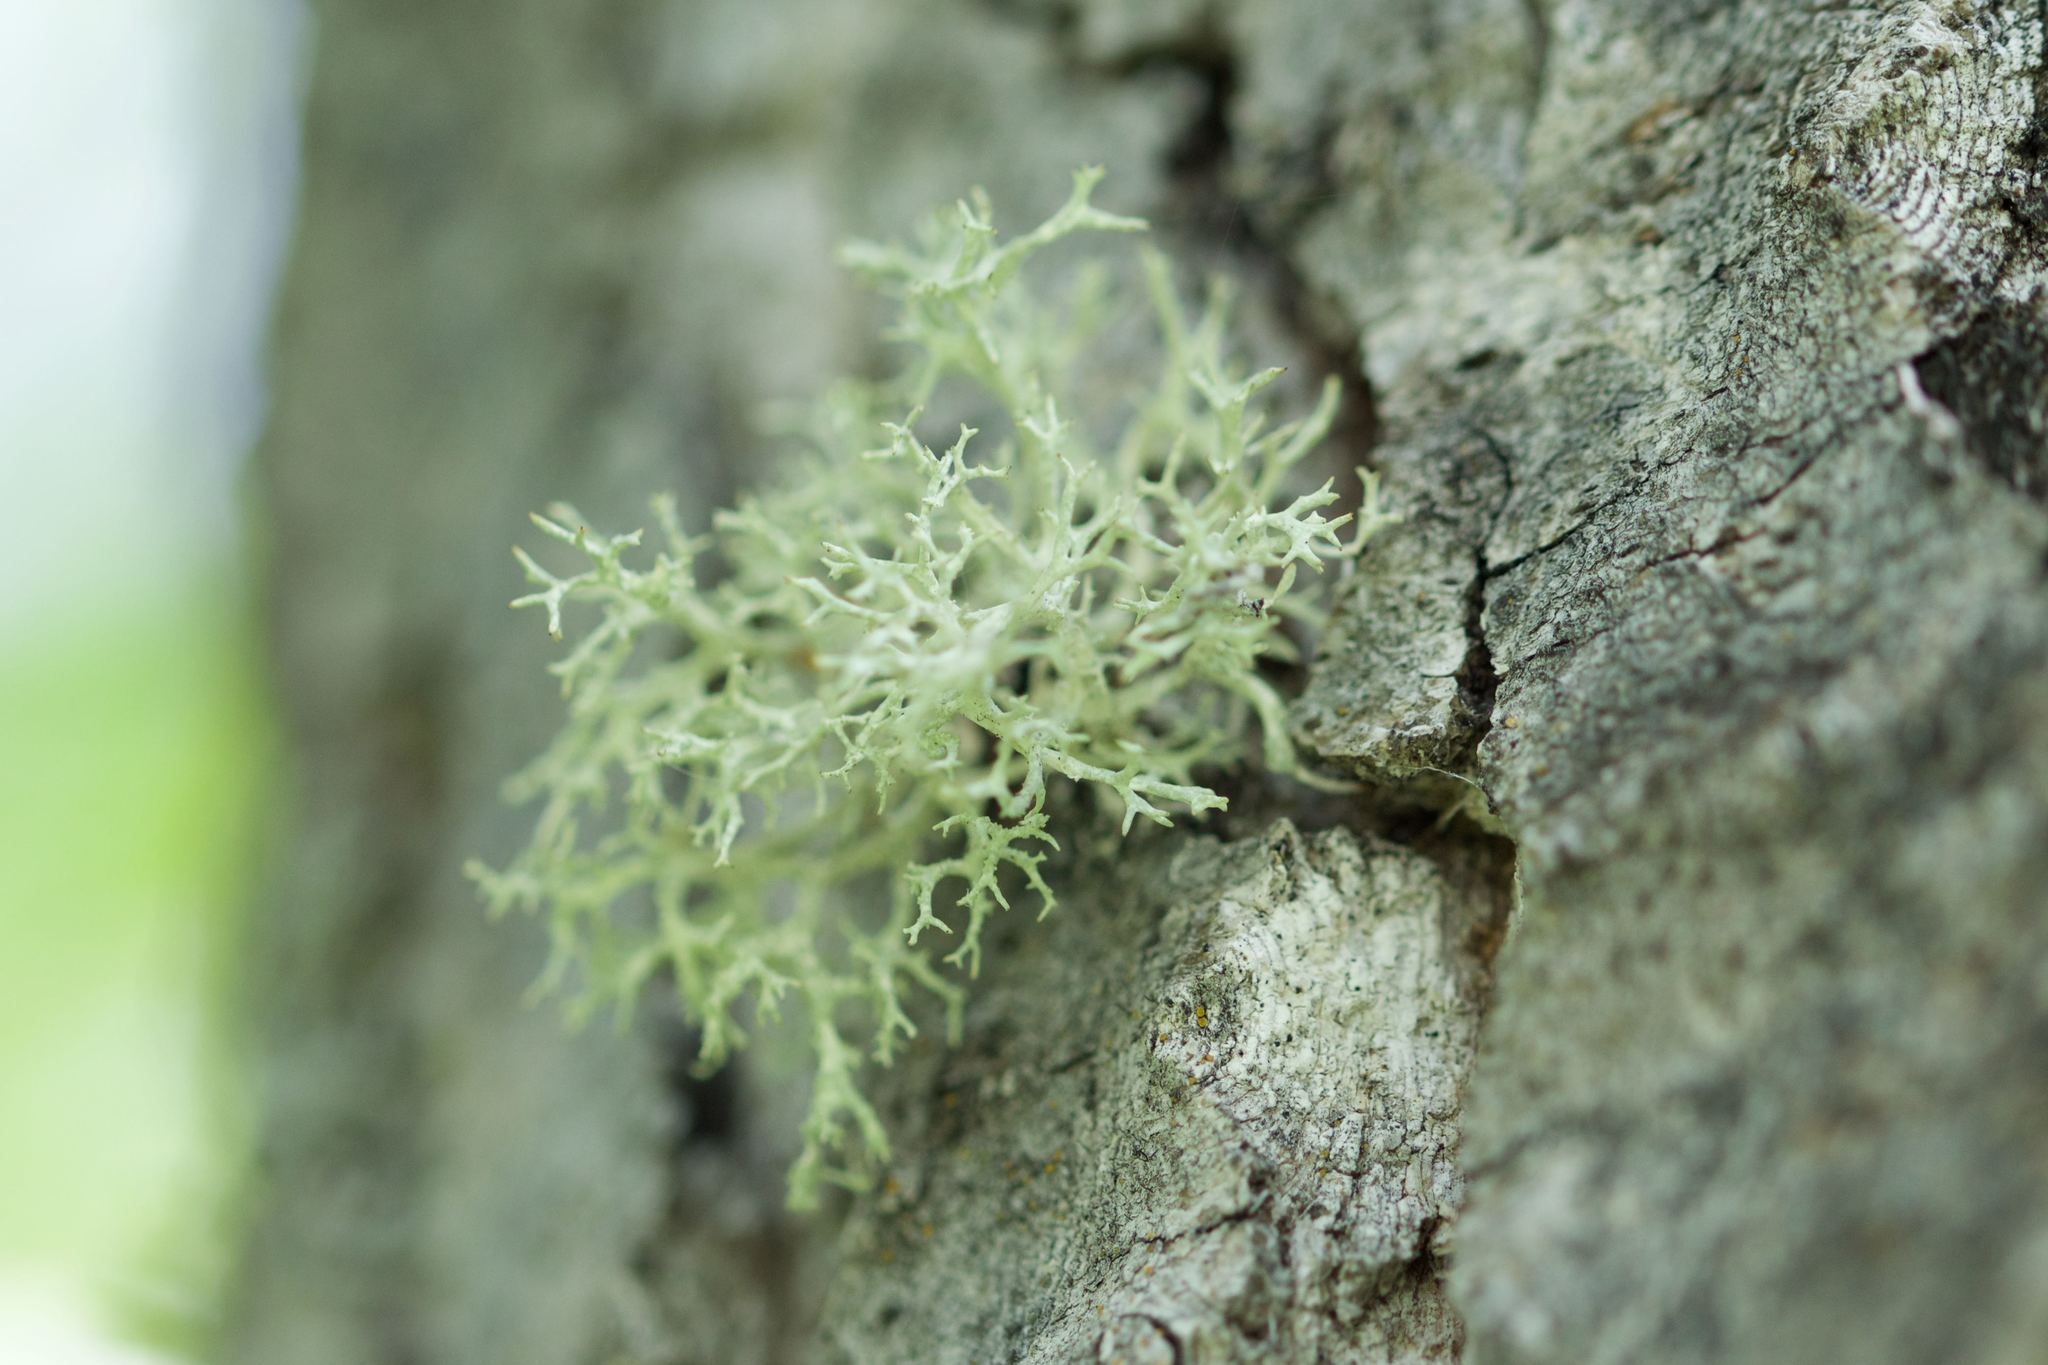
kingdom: Fungi
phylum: Ascomycota
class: Lecanoromycetes
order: Lecanorales
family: Parmeliaceae
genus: Evernia
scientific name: Evernia mesomorpha
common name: Boreal oak moss lichen
